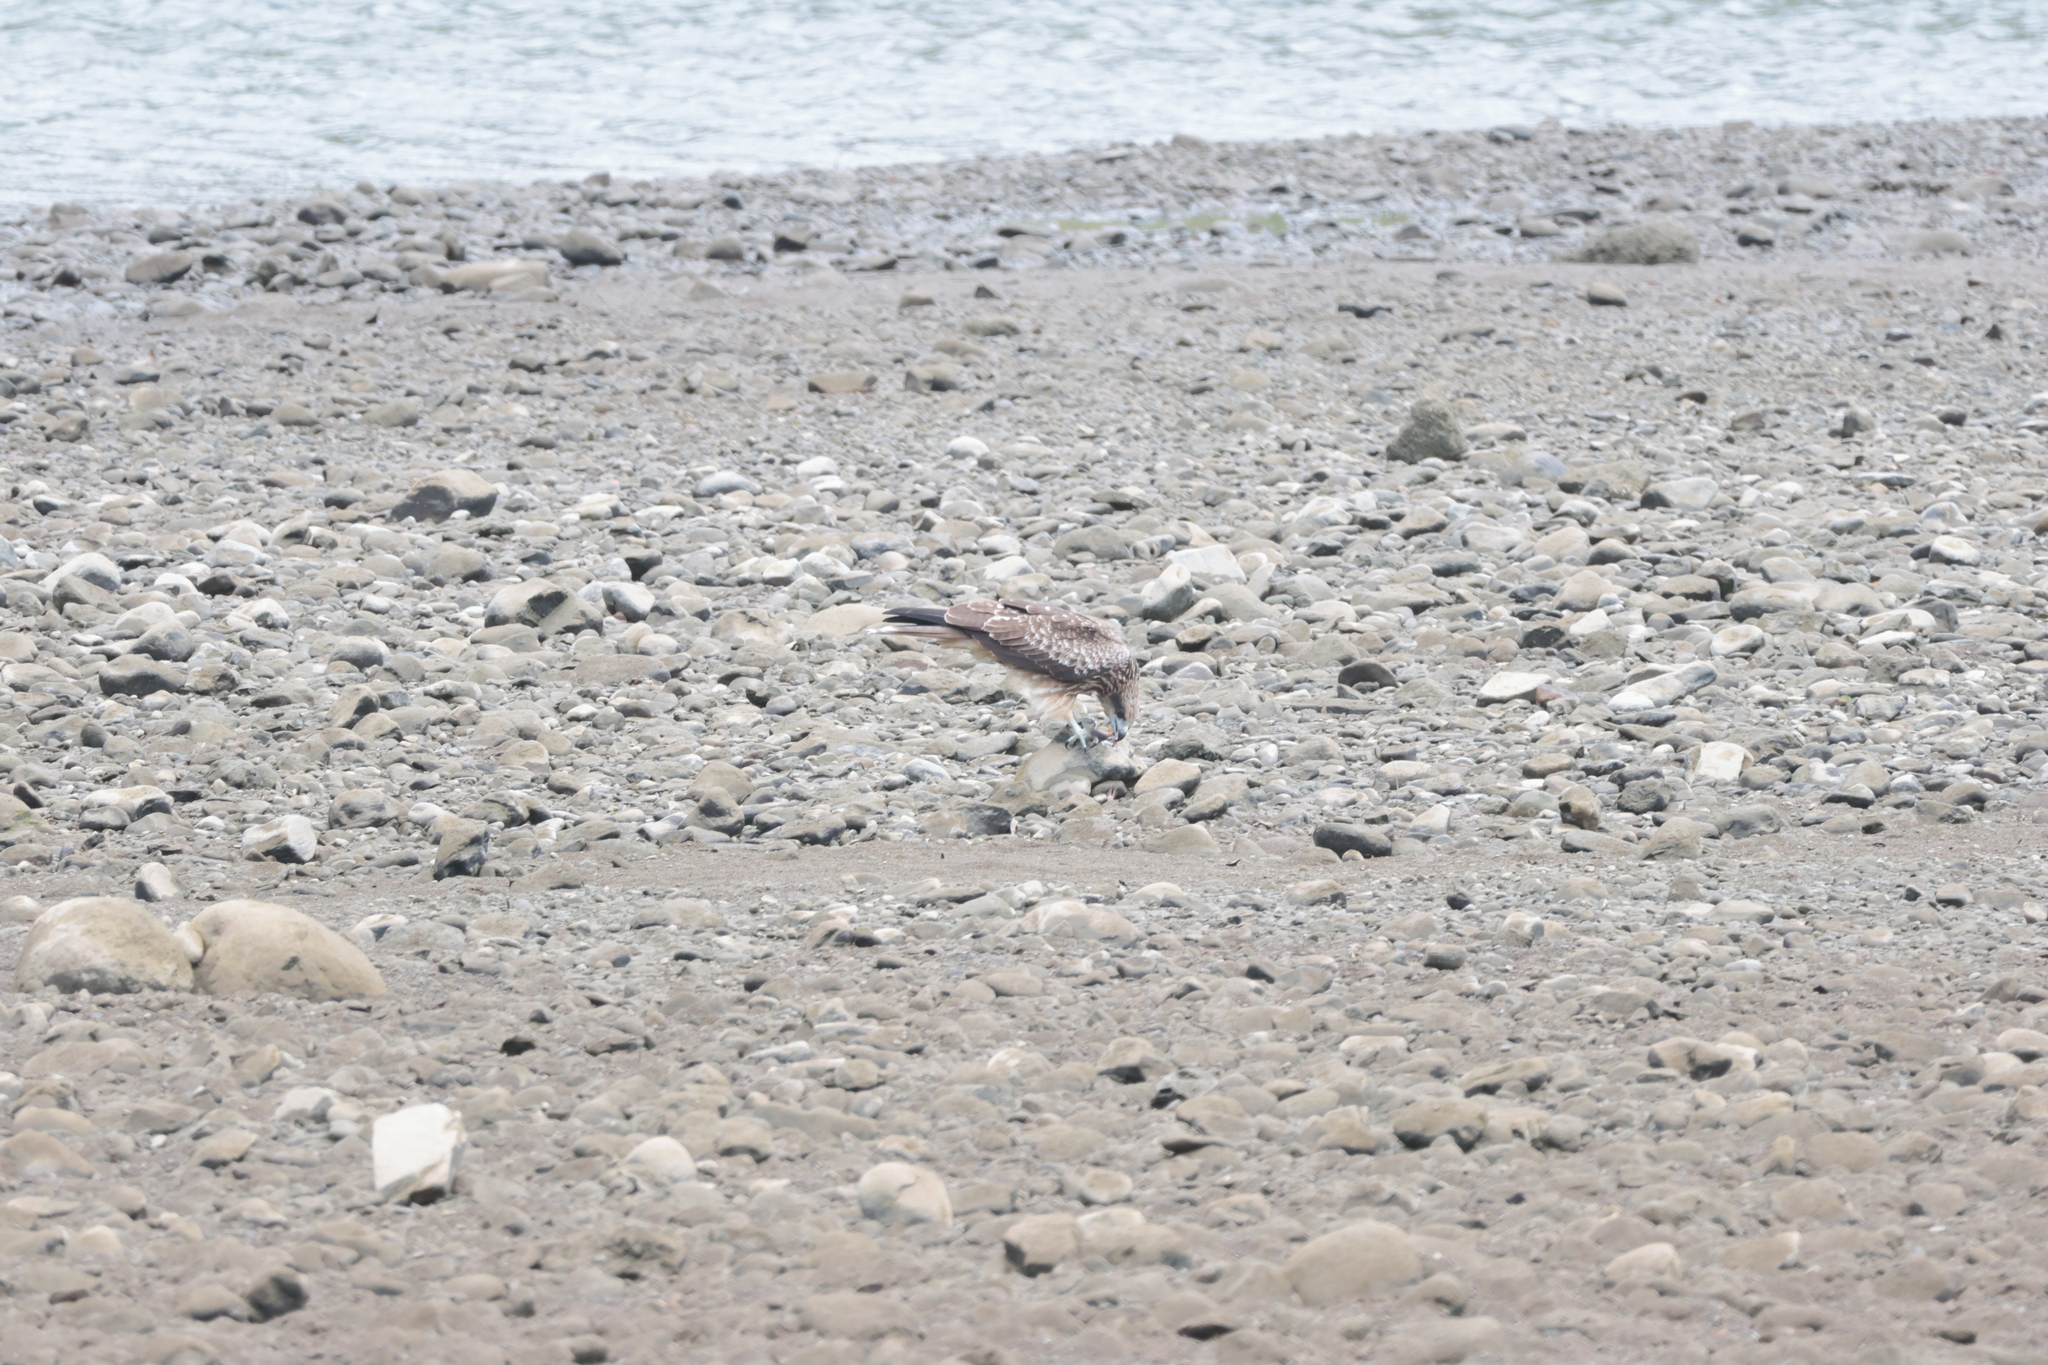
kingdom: Animalia
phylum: Chordata
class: Aves
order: Accipitriformes
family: Accipitridae
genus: Milvus
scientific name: Milvus migrans
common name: Black kite
